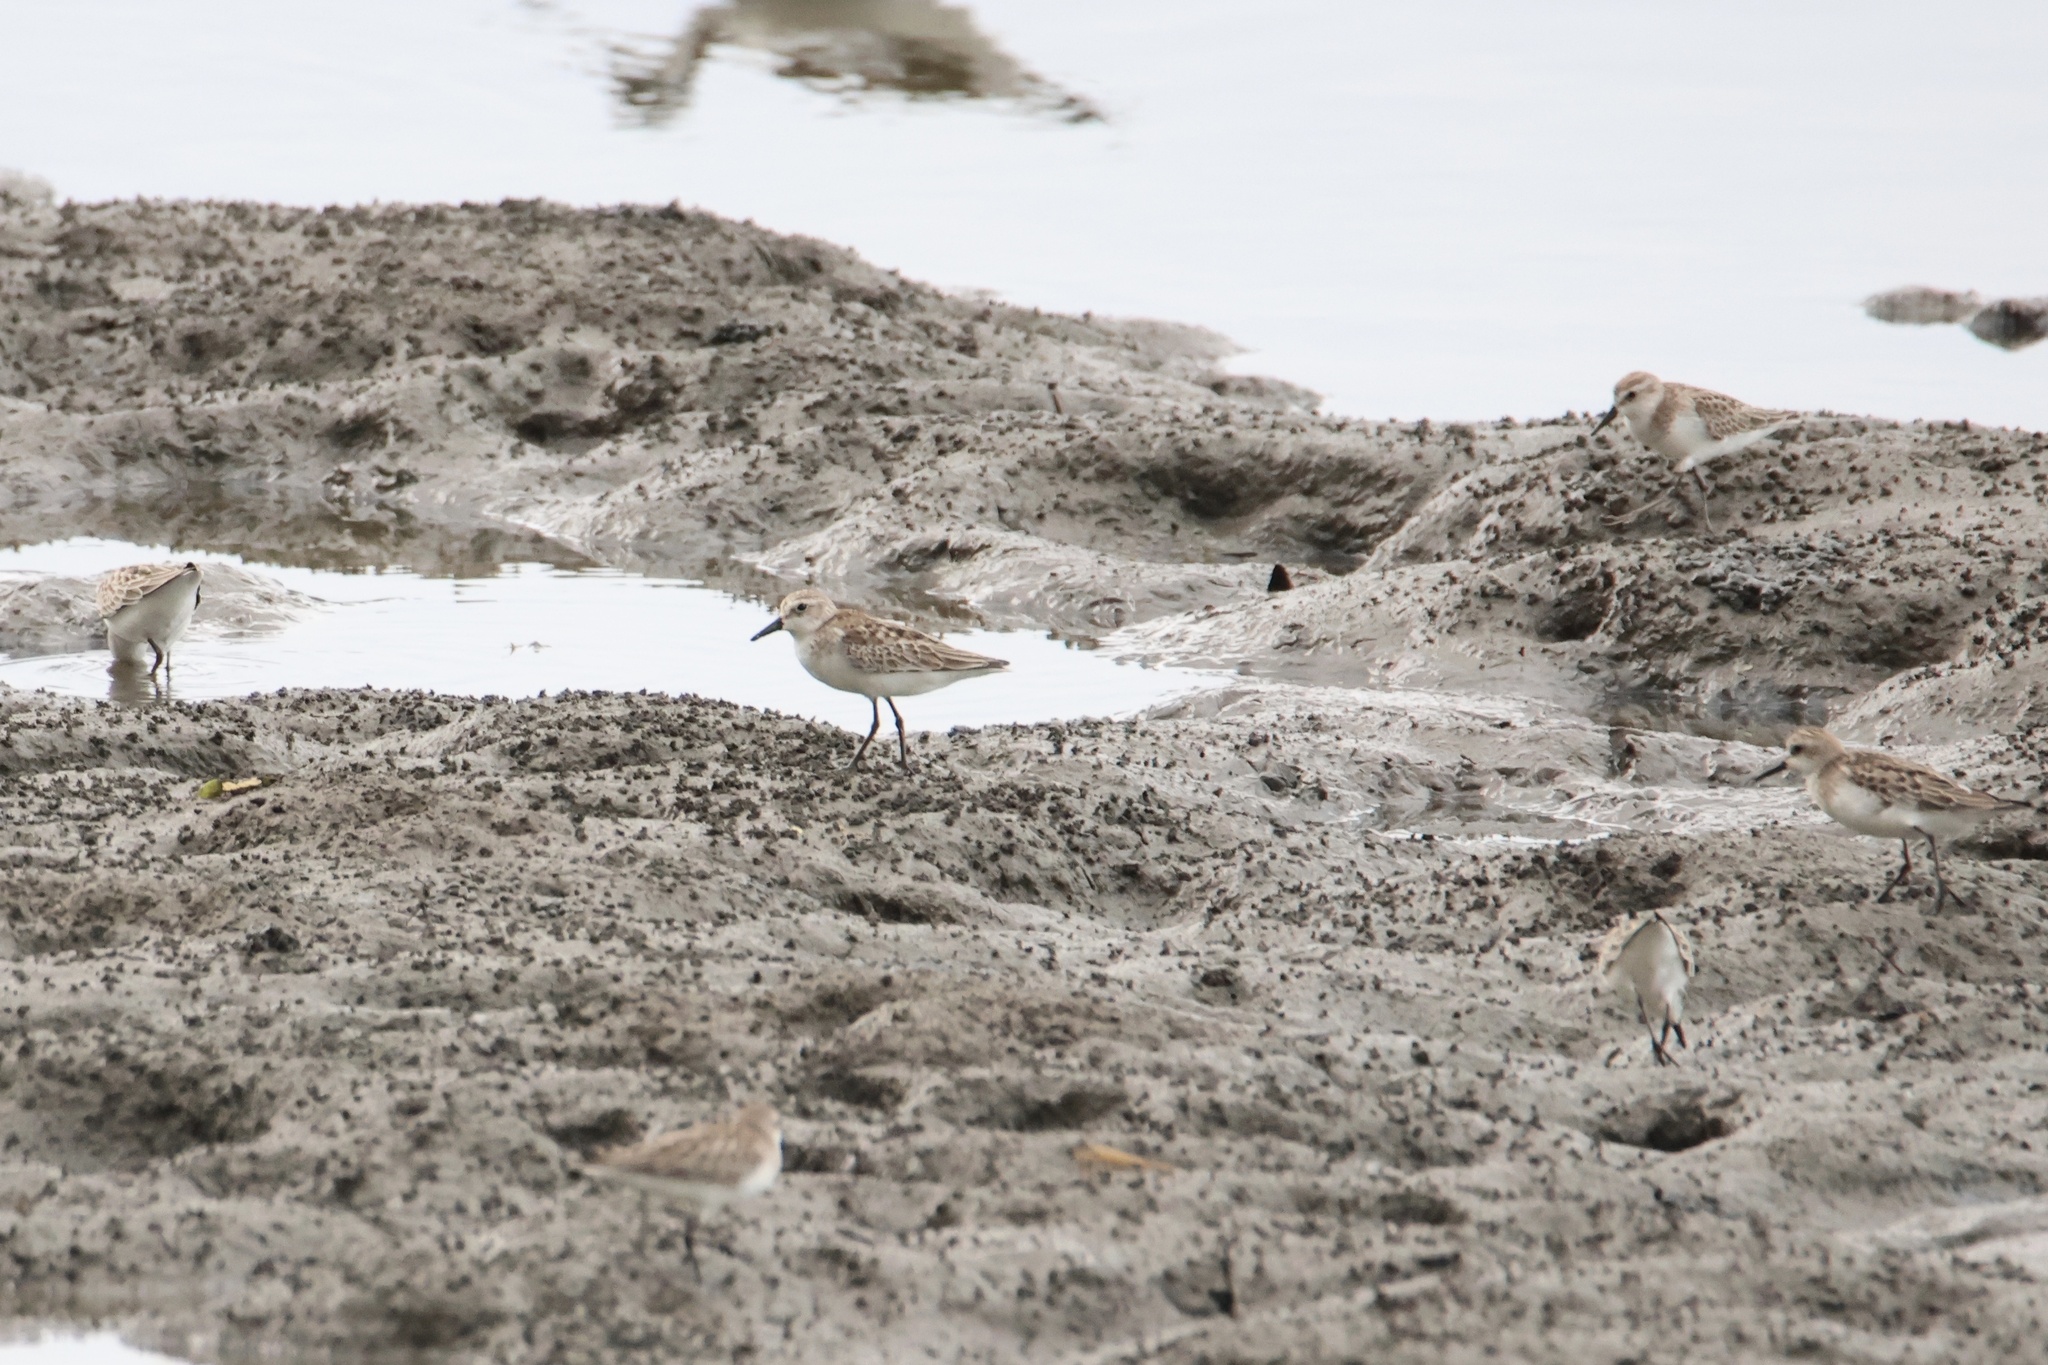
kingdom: Animalia
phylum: Chordata
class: Aves
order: Charadriiformes
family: Scolopacidae
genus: Calidris
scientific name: Calidris pusilla
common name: Semipalmated sandpiper
